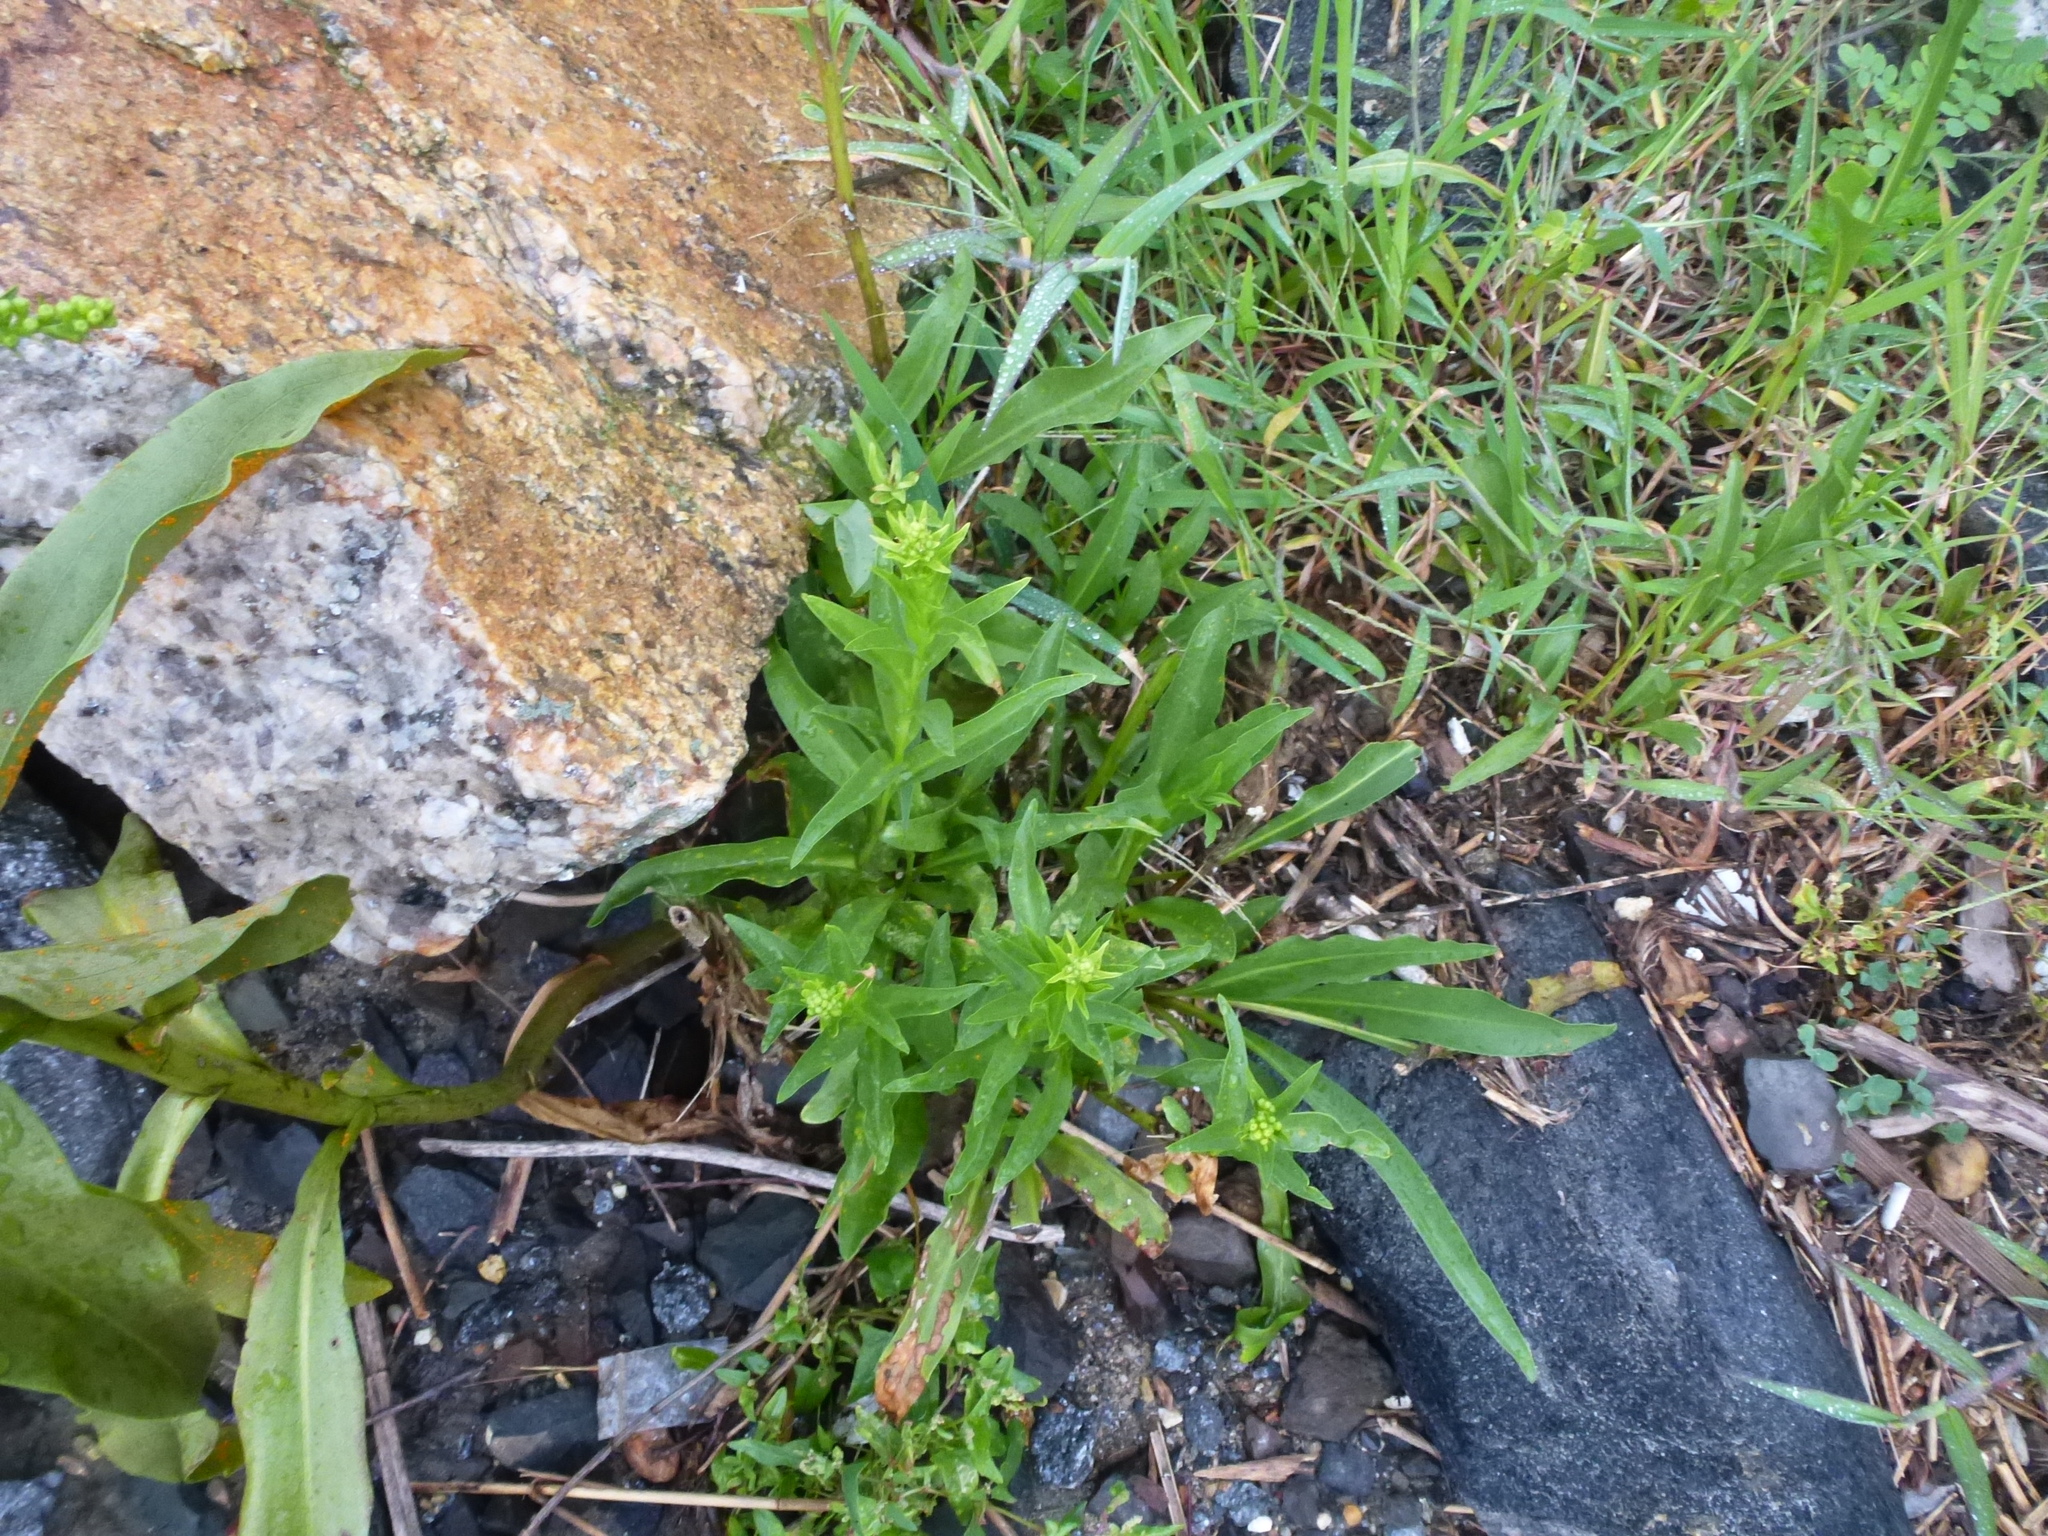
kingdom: Plantae
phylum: Tracheophyta
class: Magnoliopsida
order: Asterales
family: Asteraceae
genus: Solidago
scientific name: Solidago sempervirens
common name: Salt-marsh goldenrod
